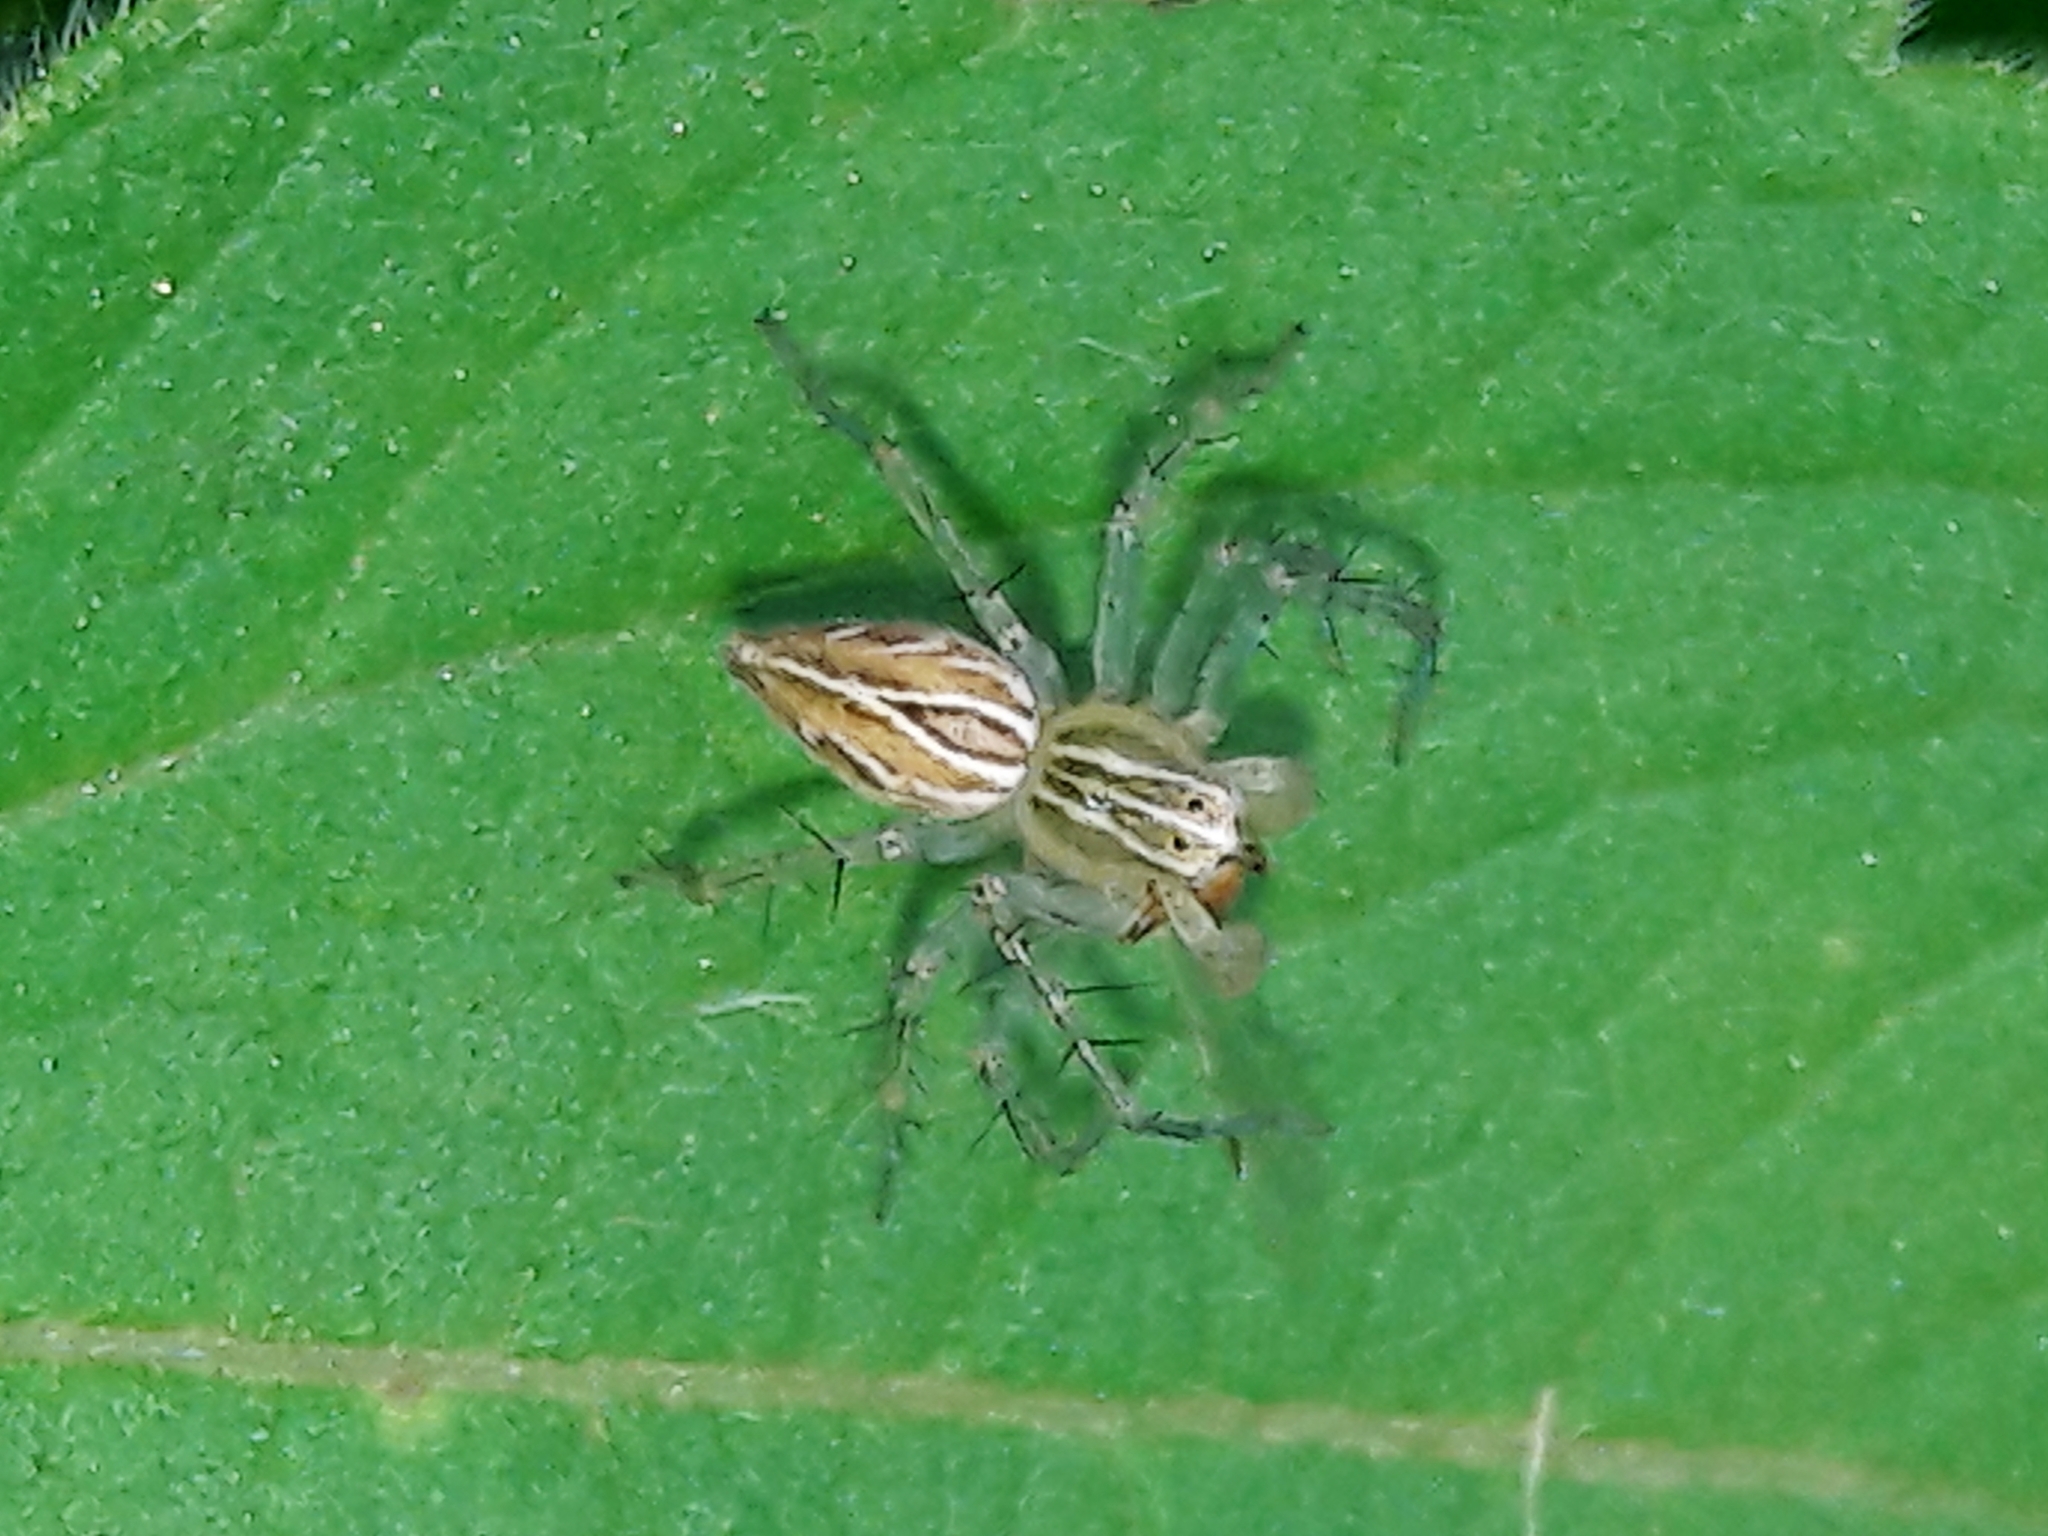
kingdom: Animalia
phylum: Arthropoda
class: Arachnida
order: Araneae
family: Oxyopidae
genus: Oxyopes
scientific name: Oxyopes salticus
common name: Lynx spiders
